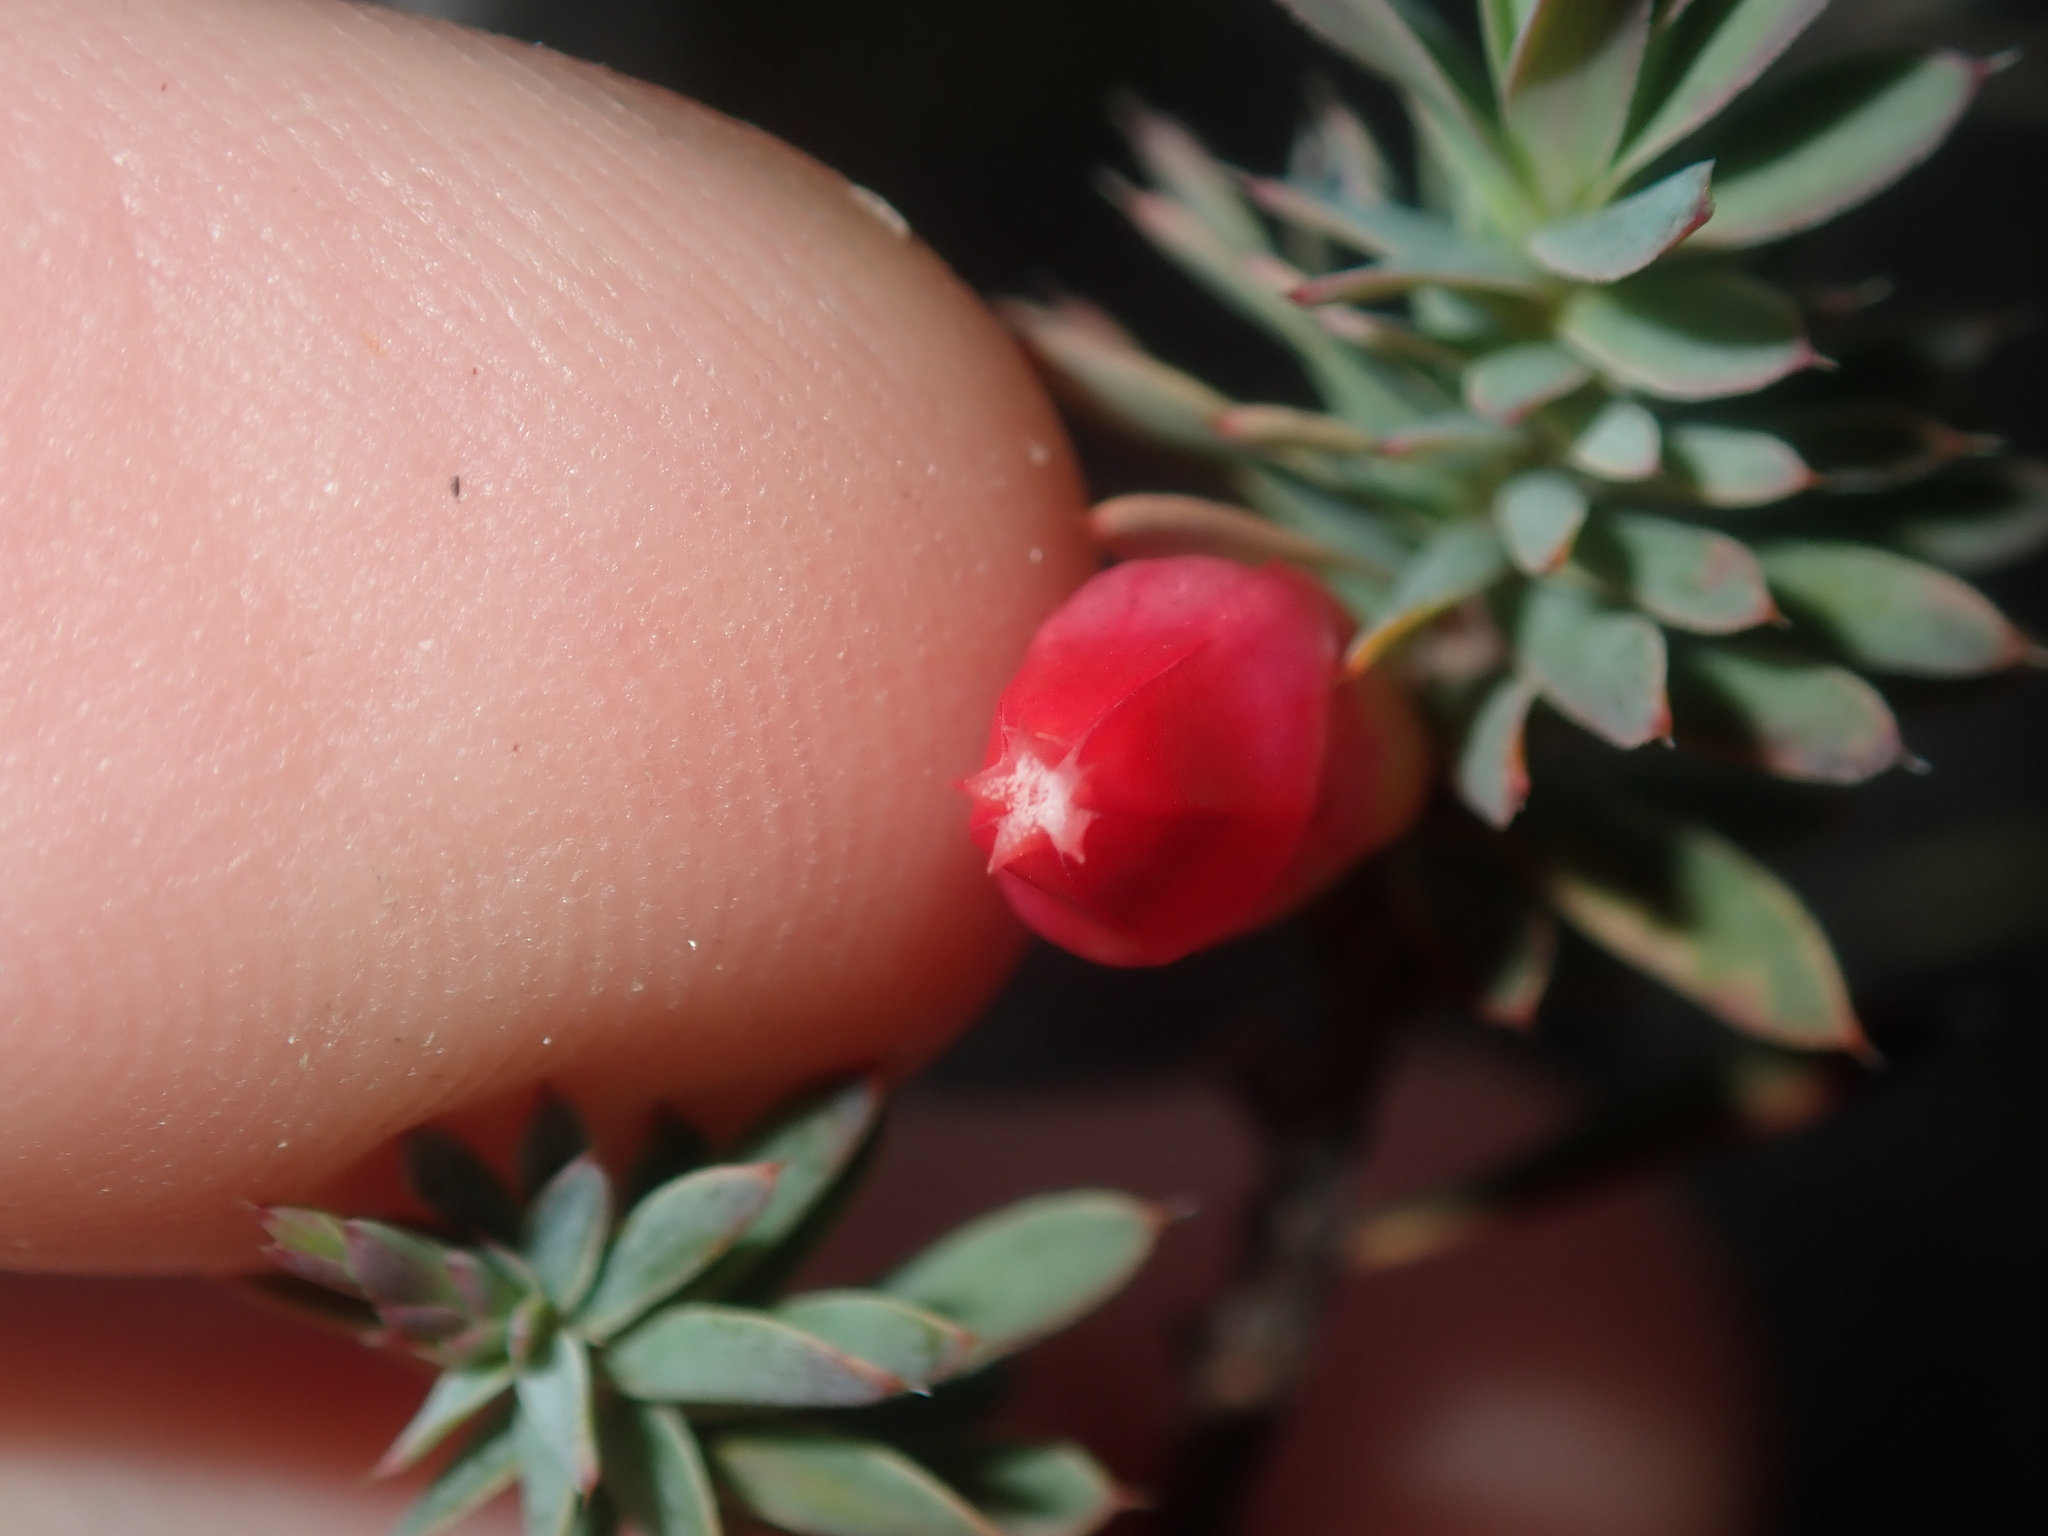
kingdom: Plantae
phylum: Tracheophyta
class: Magnoliopsida
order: Ericales
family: Ericaceae
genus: Styphelia
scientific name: Styphelia tortifolia
